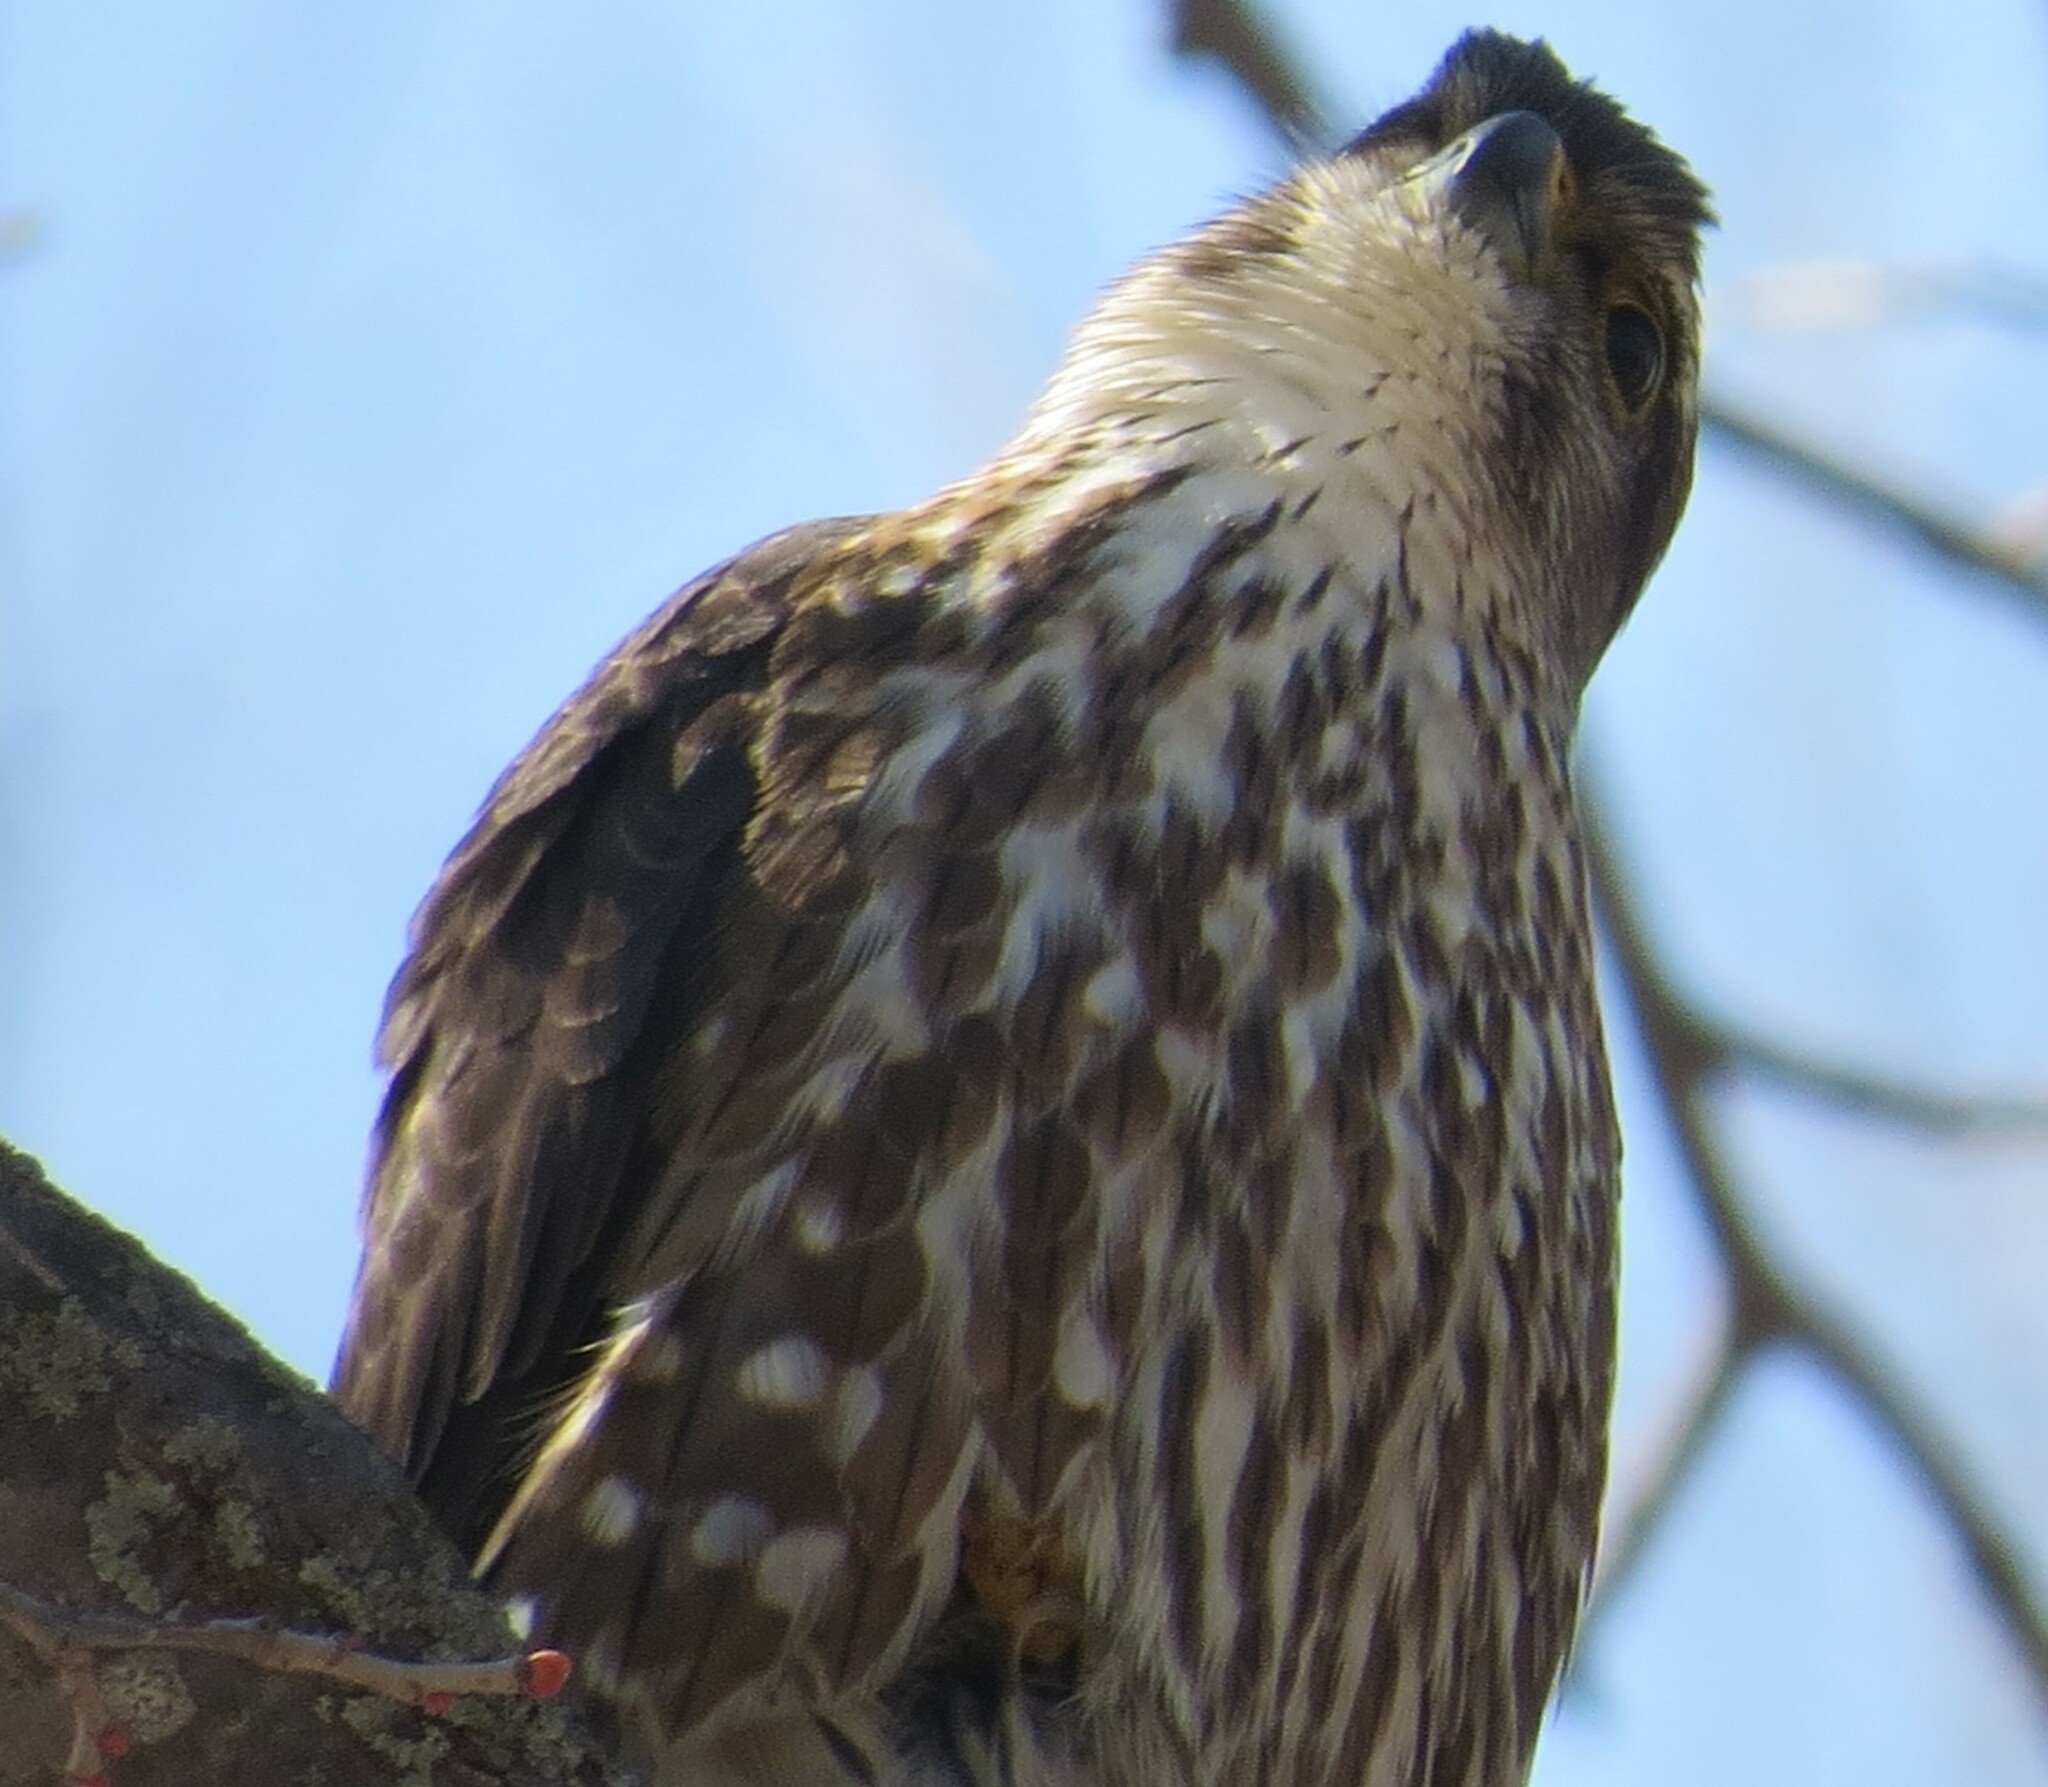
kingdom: Animalia
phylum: Chordata
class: Aves
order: Falconiformes
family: Falconidae
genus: Falco
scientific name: Falco columbarius
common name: Merlin
